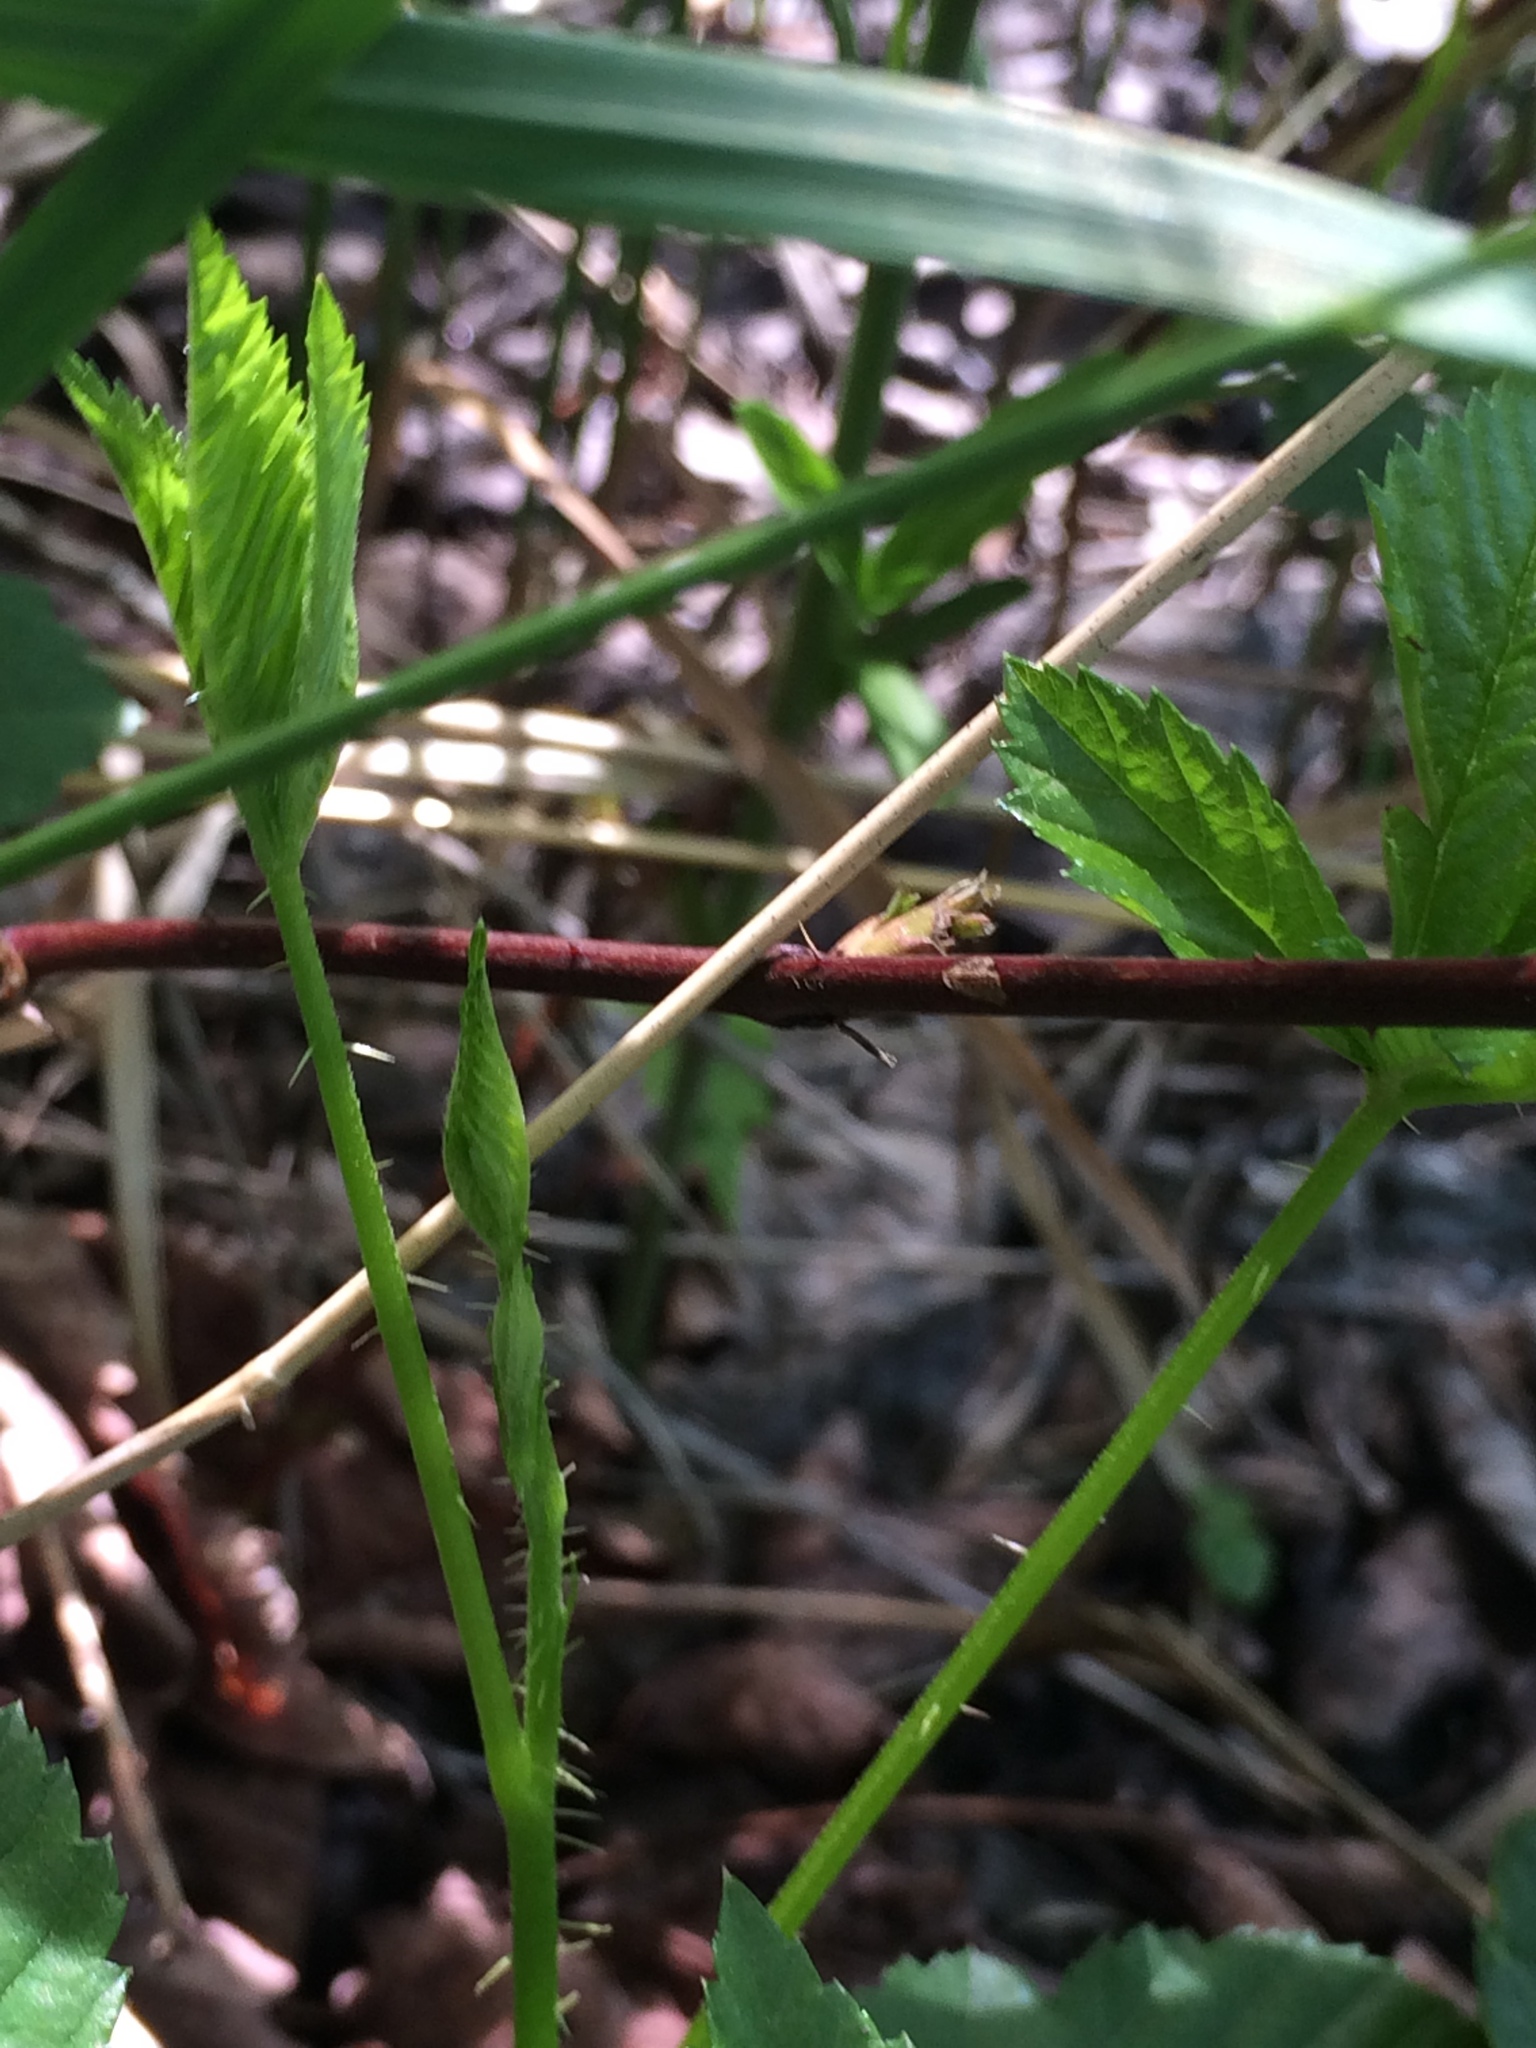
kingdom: Plantae
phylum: Tracheophyta
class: Magnoliopsida
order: Rosales
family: Rosaceae
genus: Rubus
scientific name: Rubus hispidus
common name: Running blackberry
